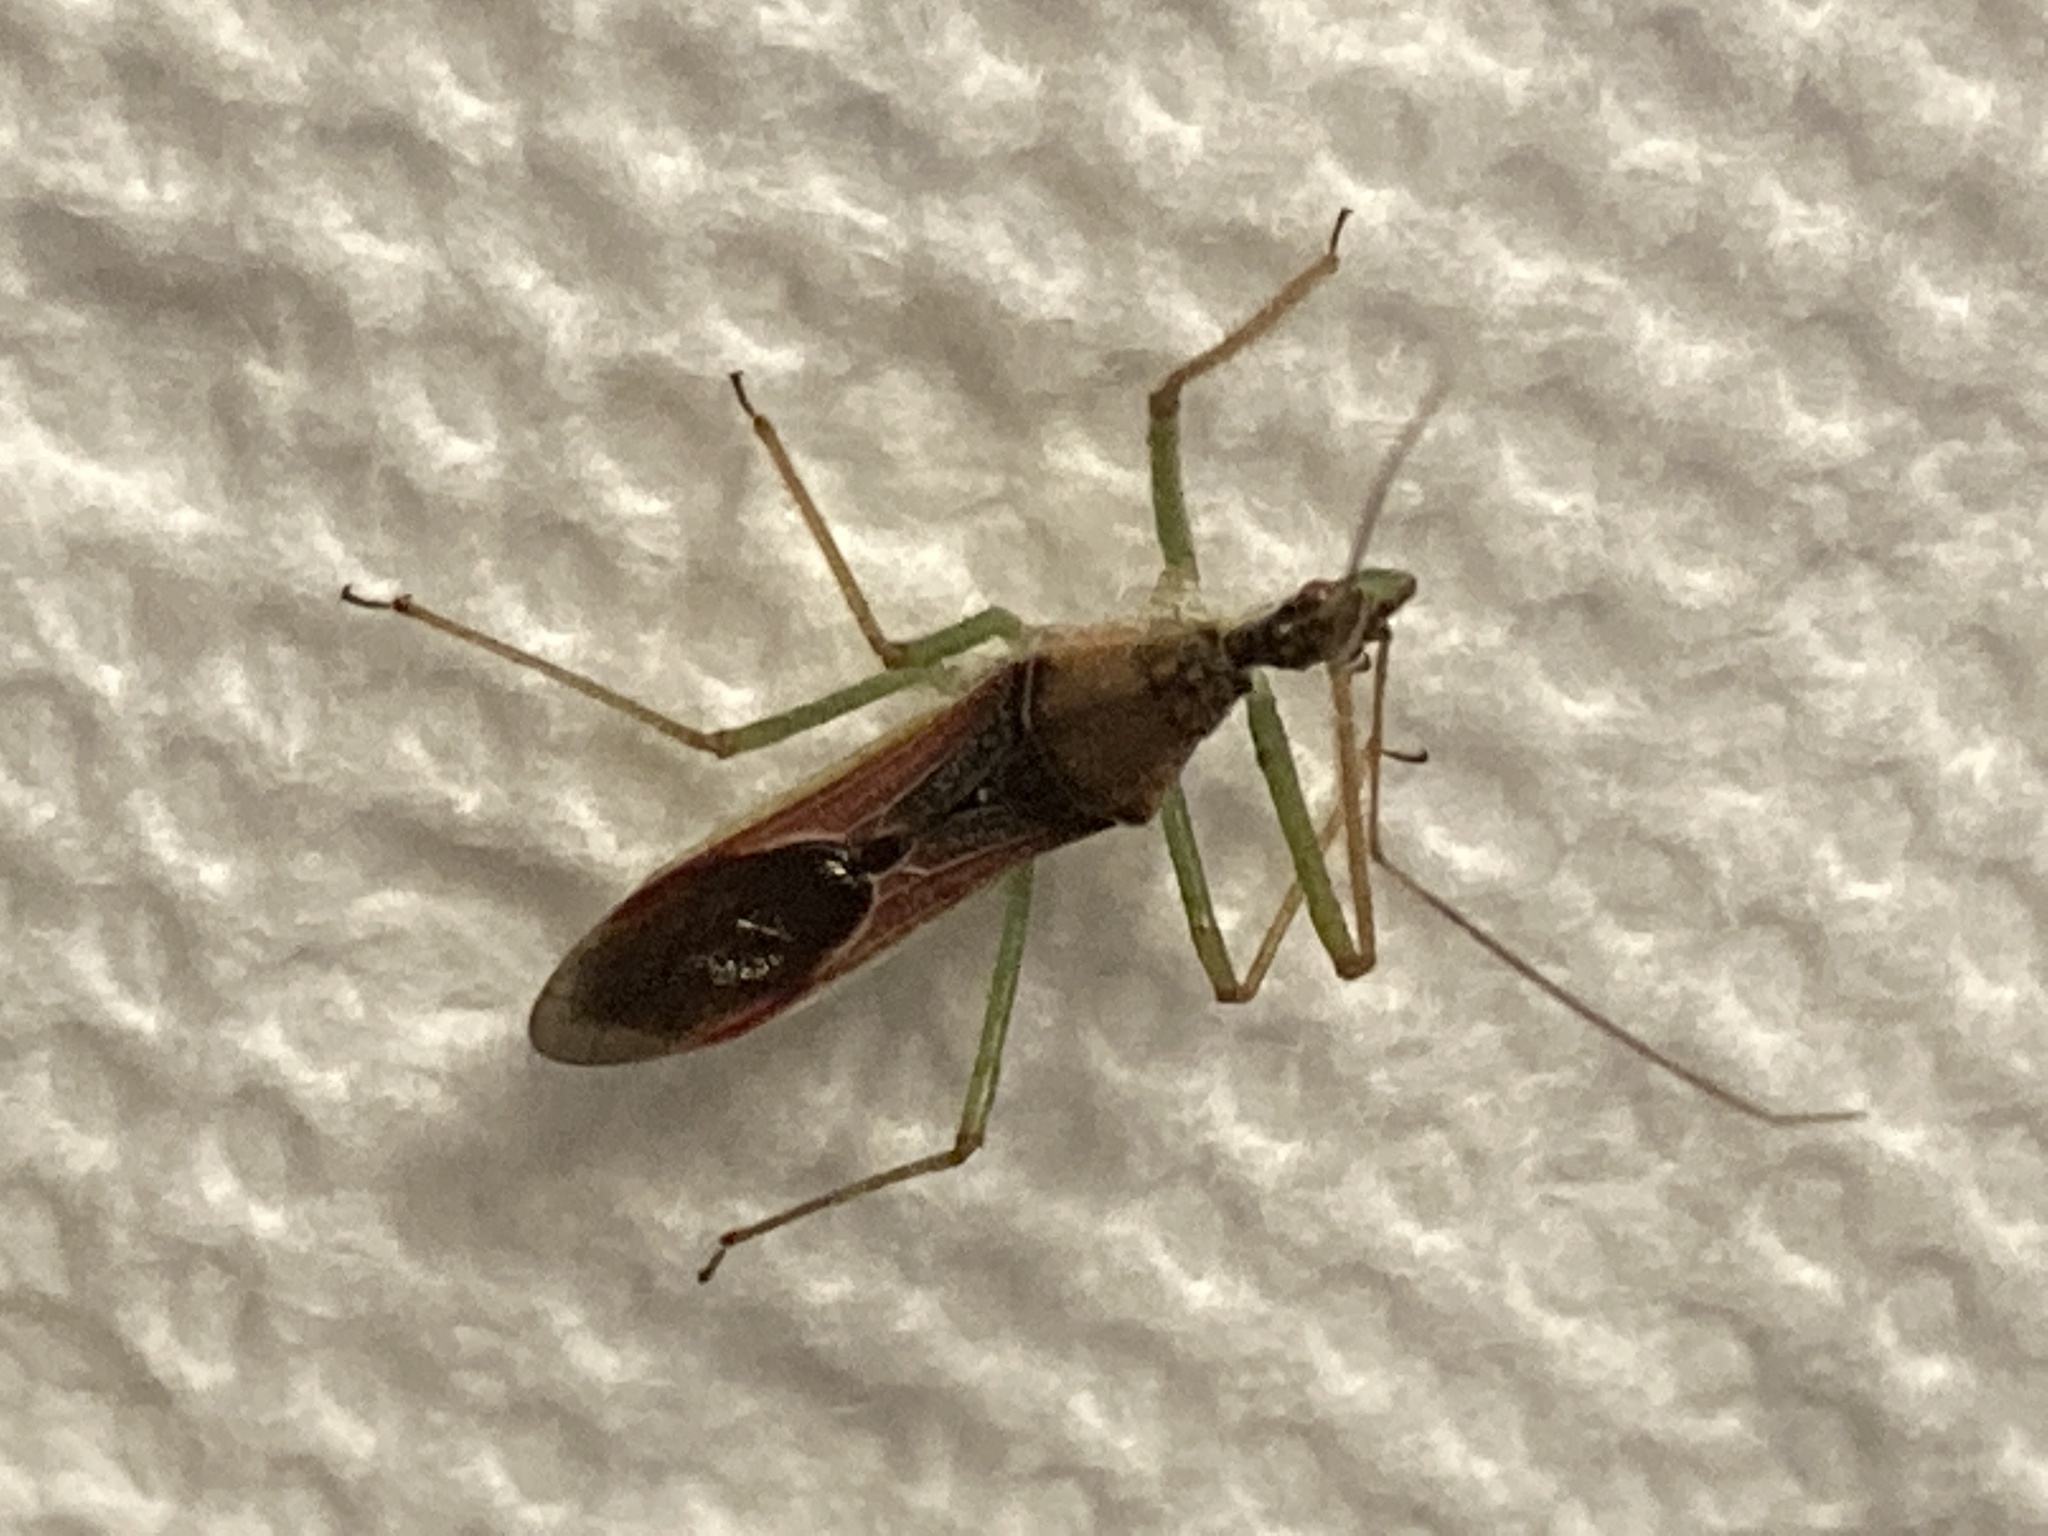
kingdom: Animalia
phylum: Arthropoda
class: Insecta
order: Hemiptera
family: Reduviidae
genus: Zelus
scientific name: Zelus renardii
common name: Assassin bug
